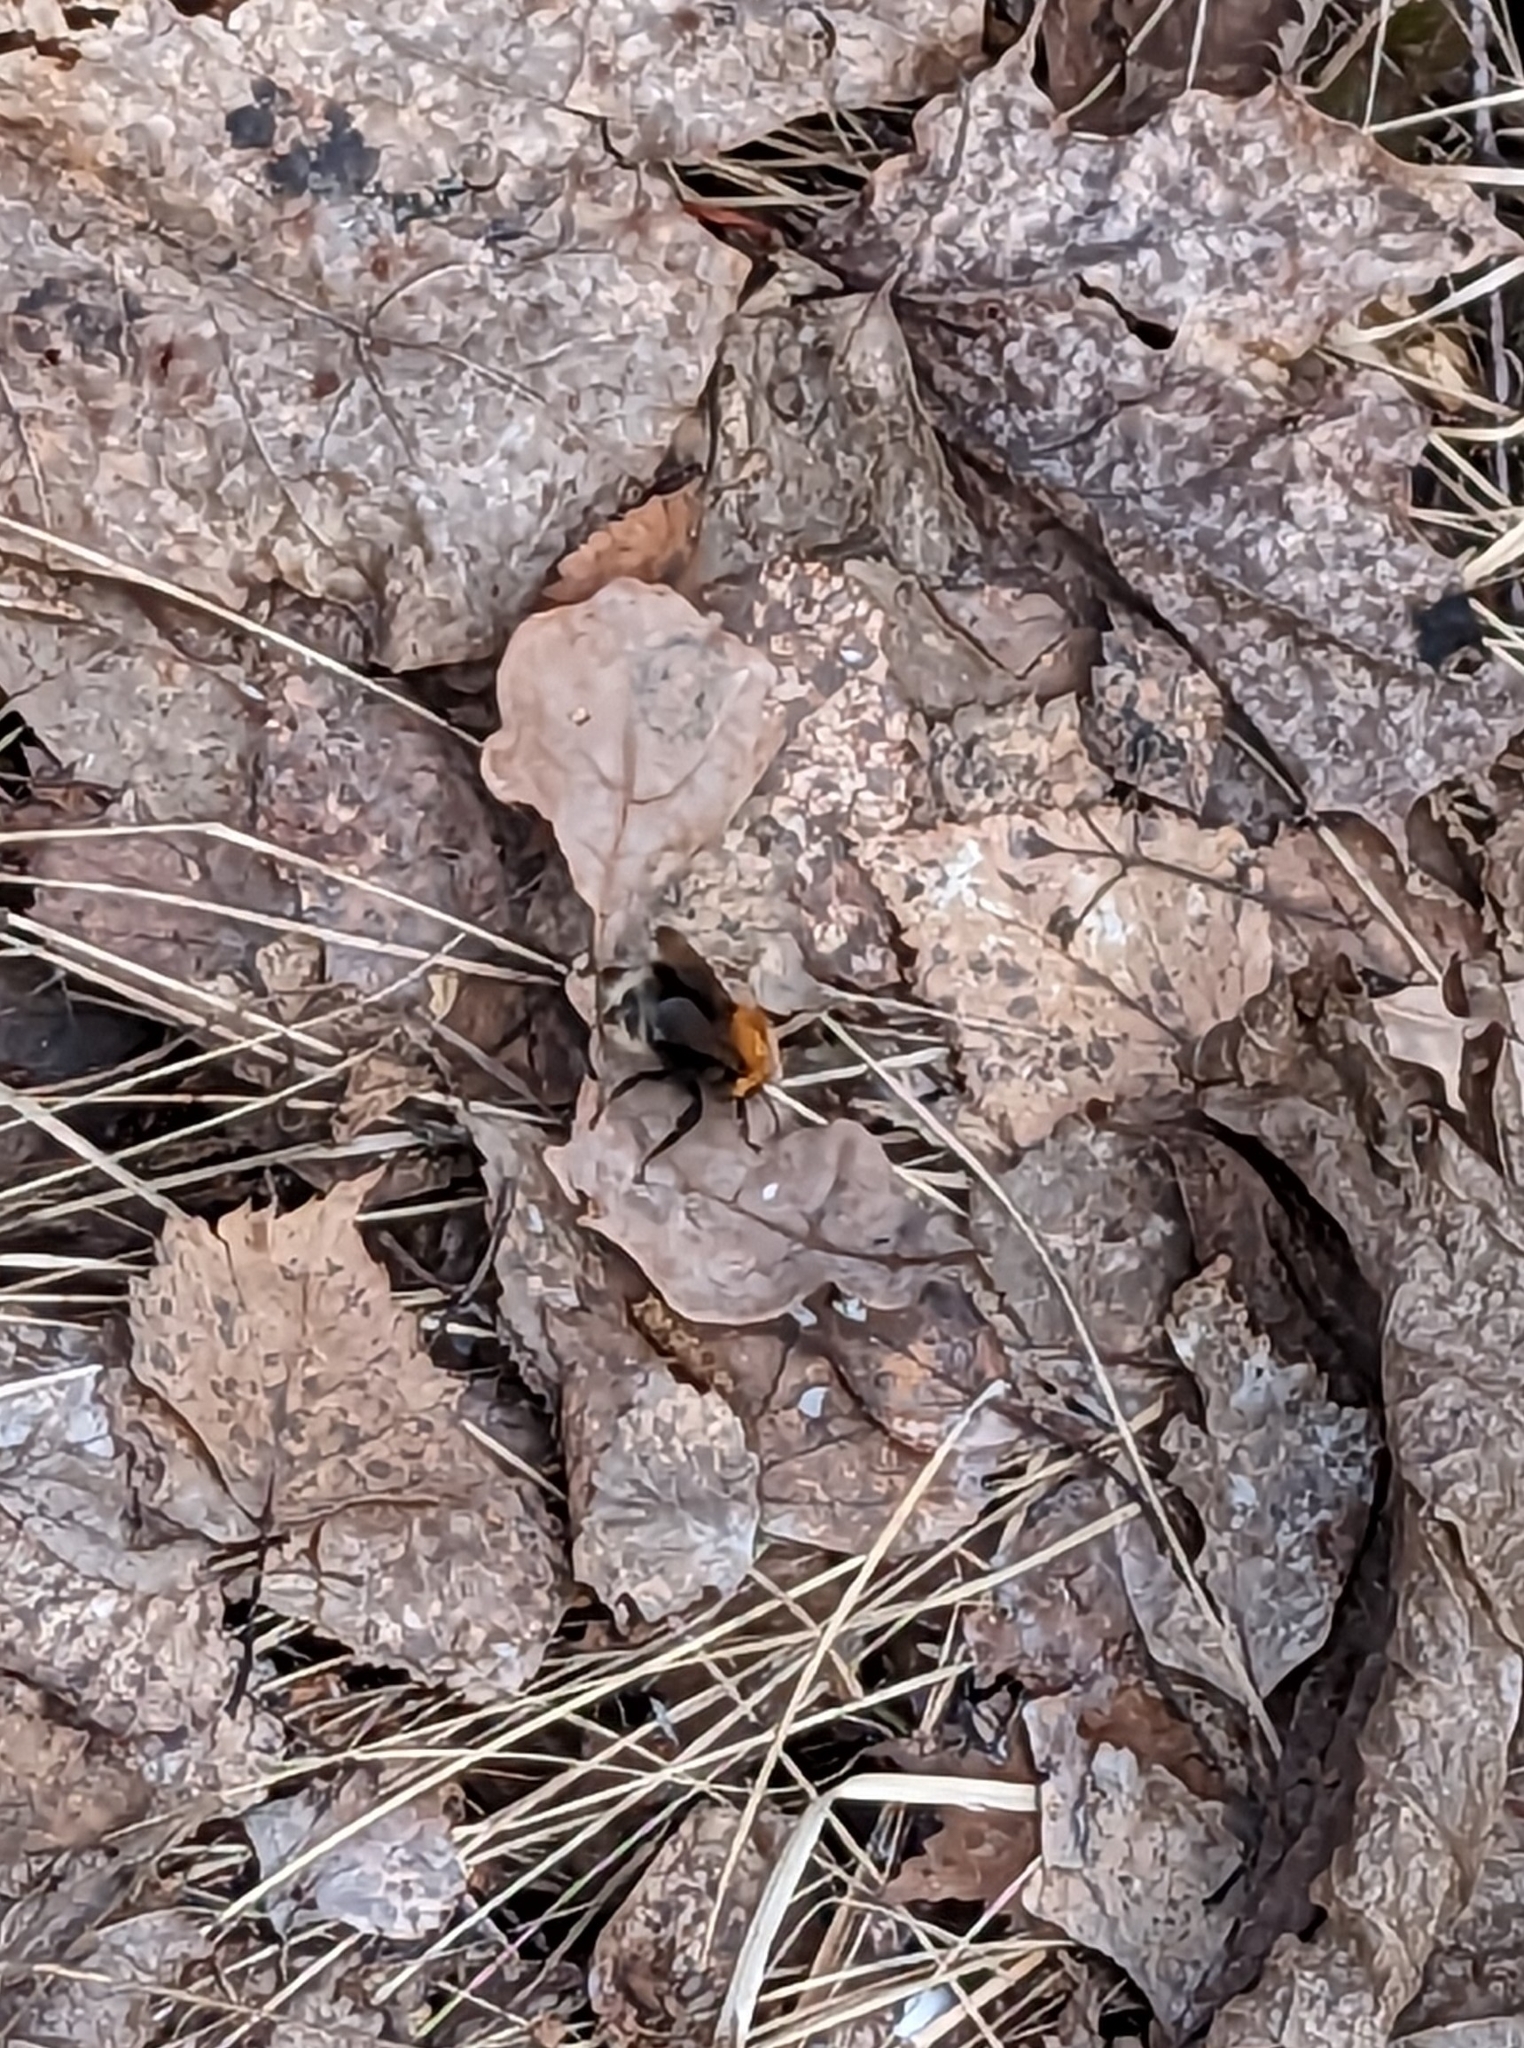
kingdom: Animalia
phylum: Arthropoda
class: Insecta
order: Hymenoptera
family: Apidae
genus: Bombus
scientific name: Bombus hypnorum
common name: New garden bumblebee
